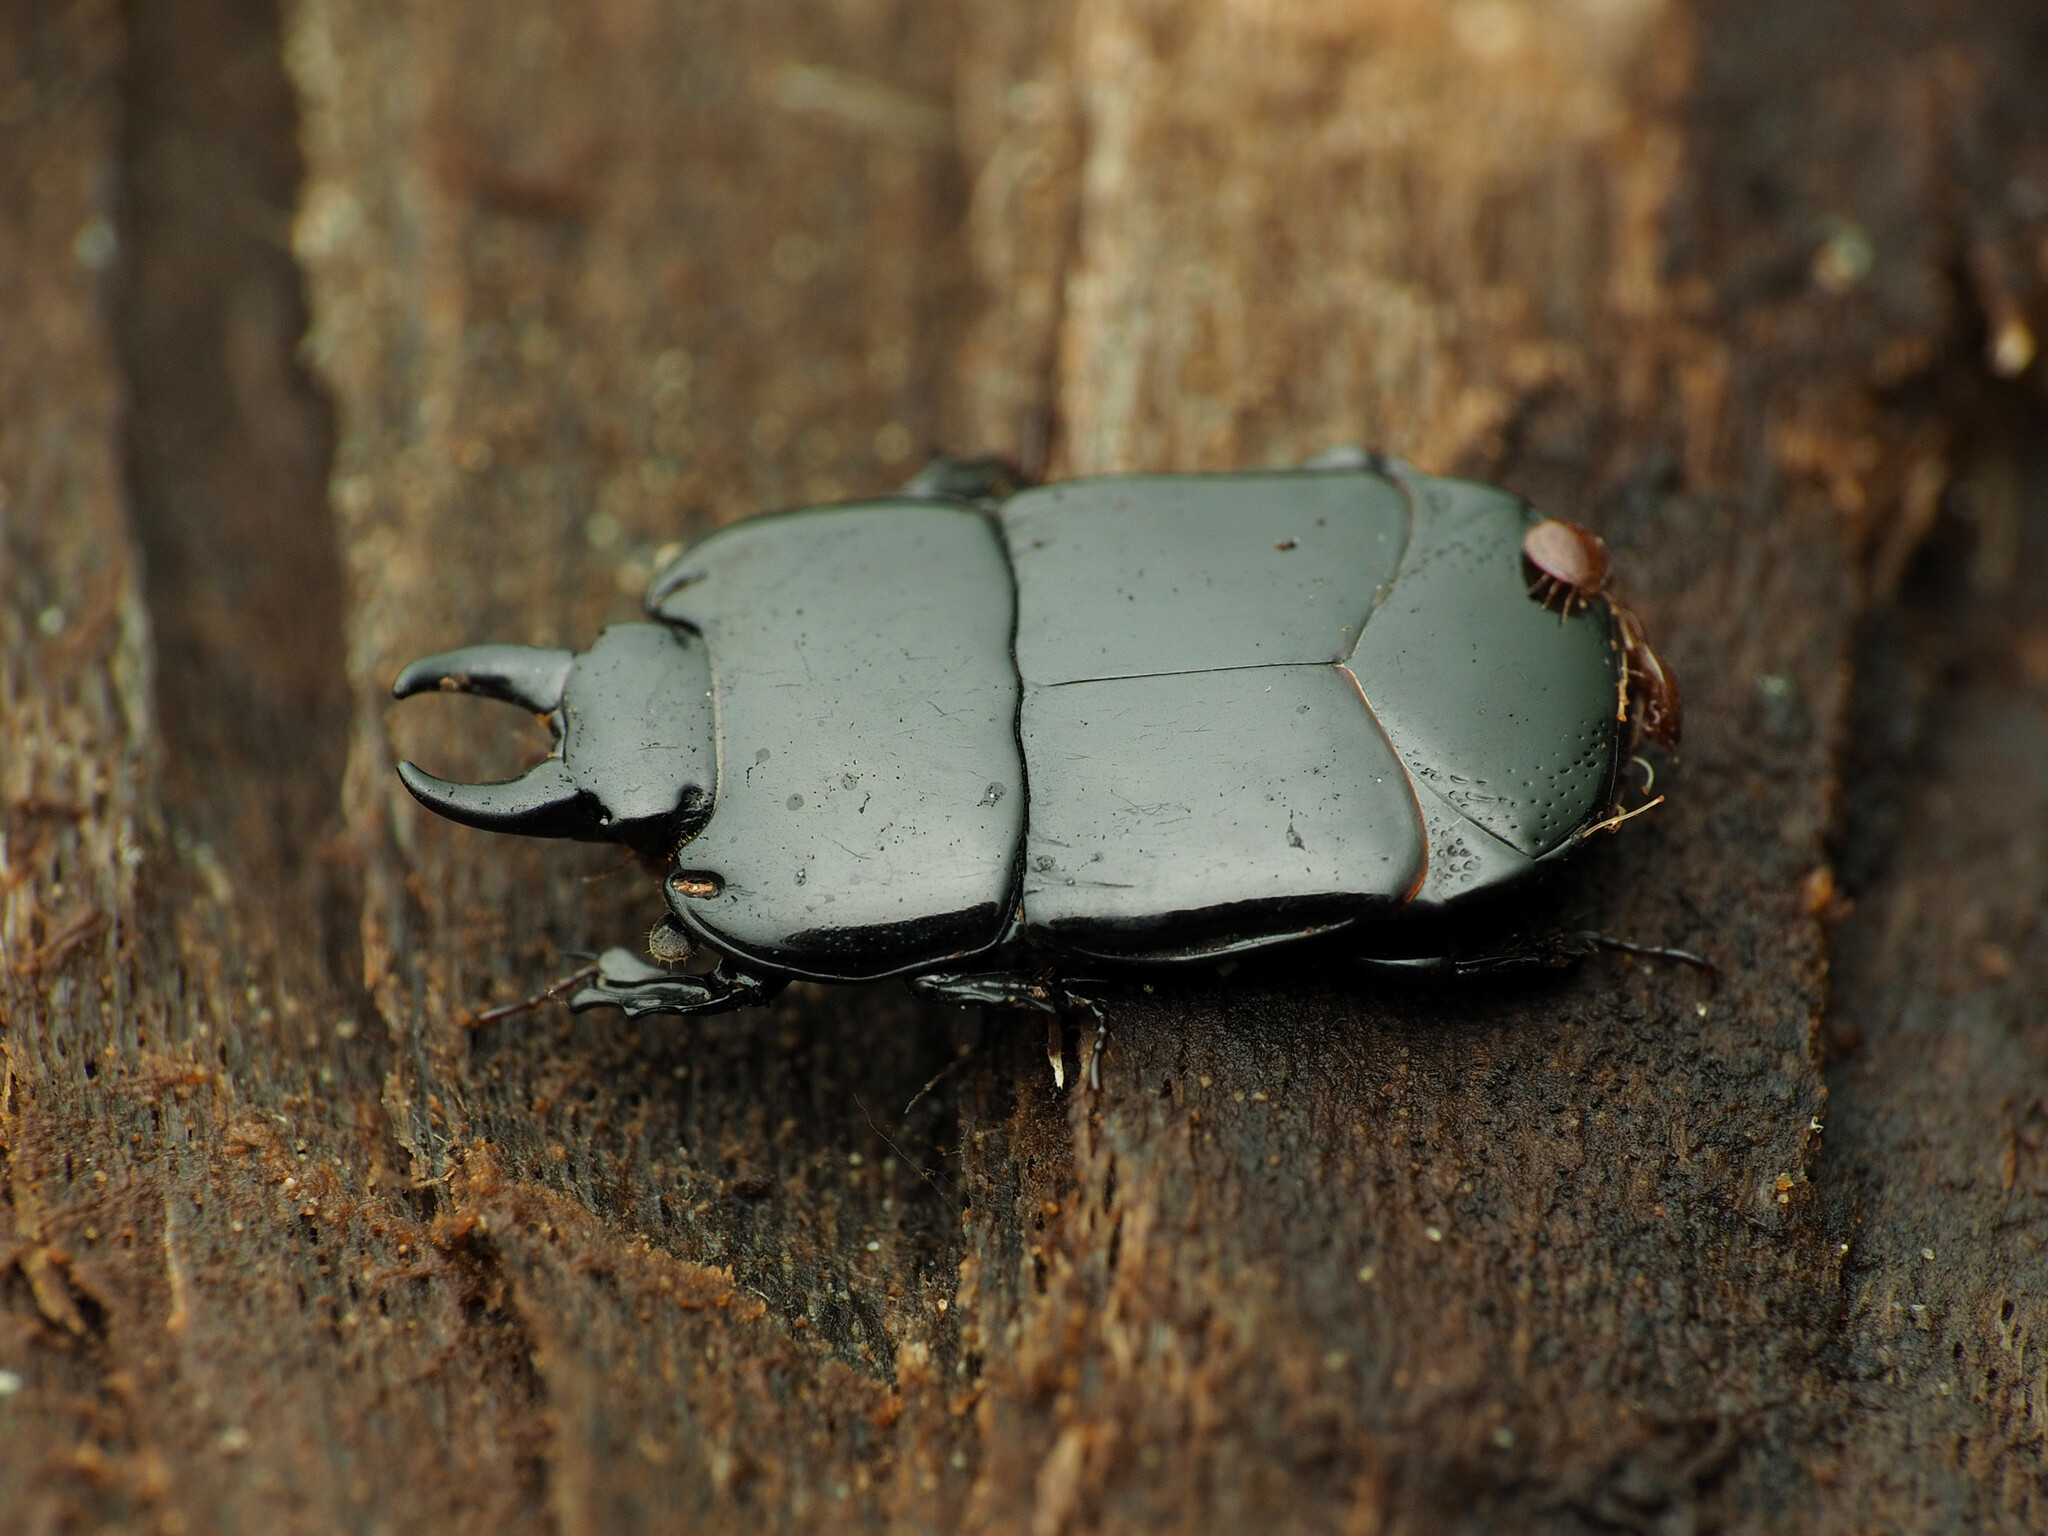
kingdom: Animalia
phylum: Arthropoda
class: Insecta
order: Coleoptera
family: Histeridae
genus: Hololepta
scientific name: Hololepta aequalis
